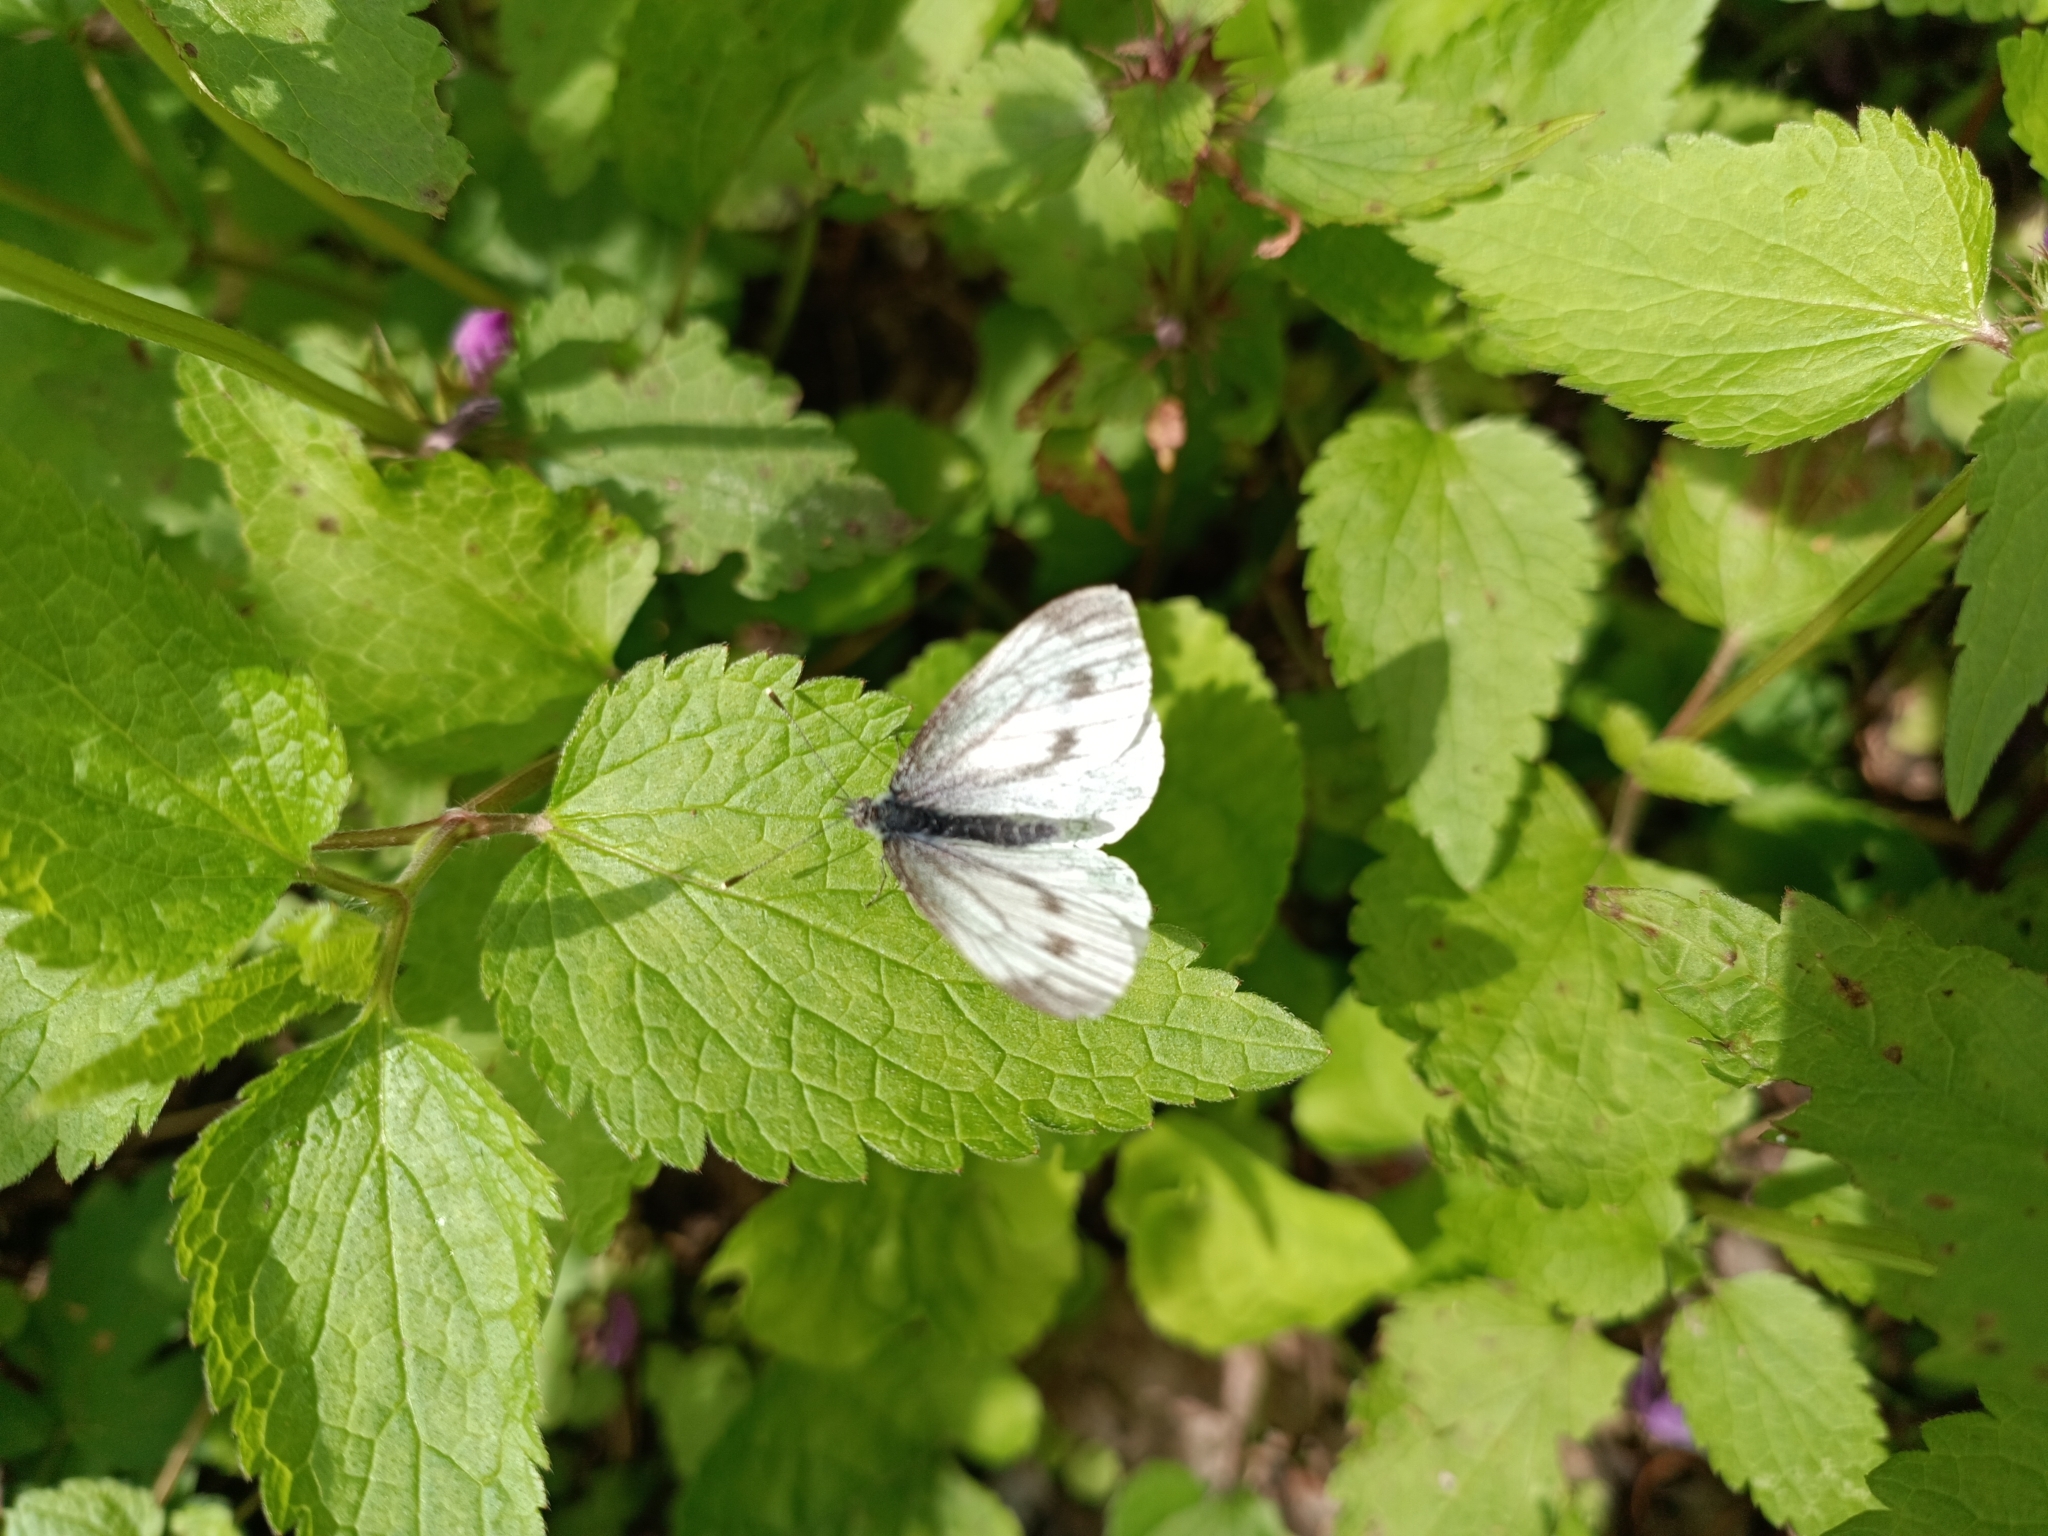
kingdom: Animalia
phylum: Arthropoda
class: Insecta
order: Lepidoptera
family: Pieridae
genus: Pieris
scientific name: Pieris napi
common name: Green-veined white
